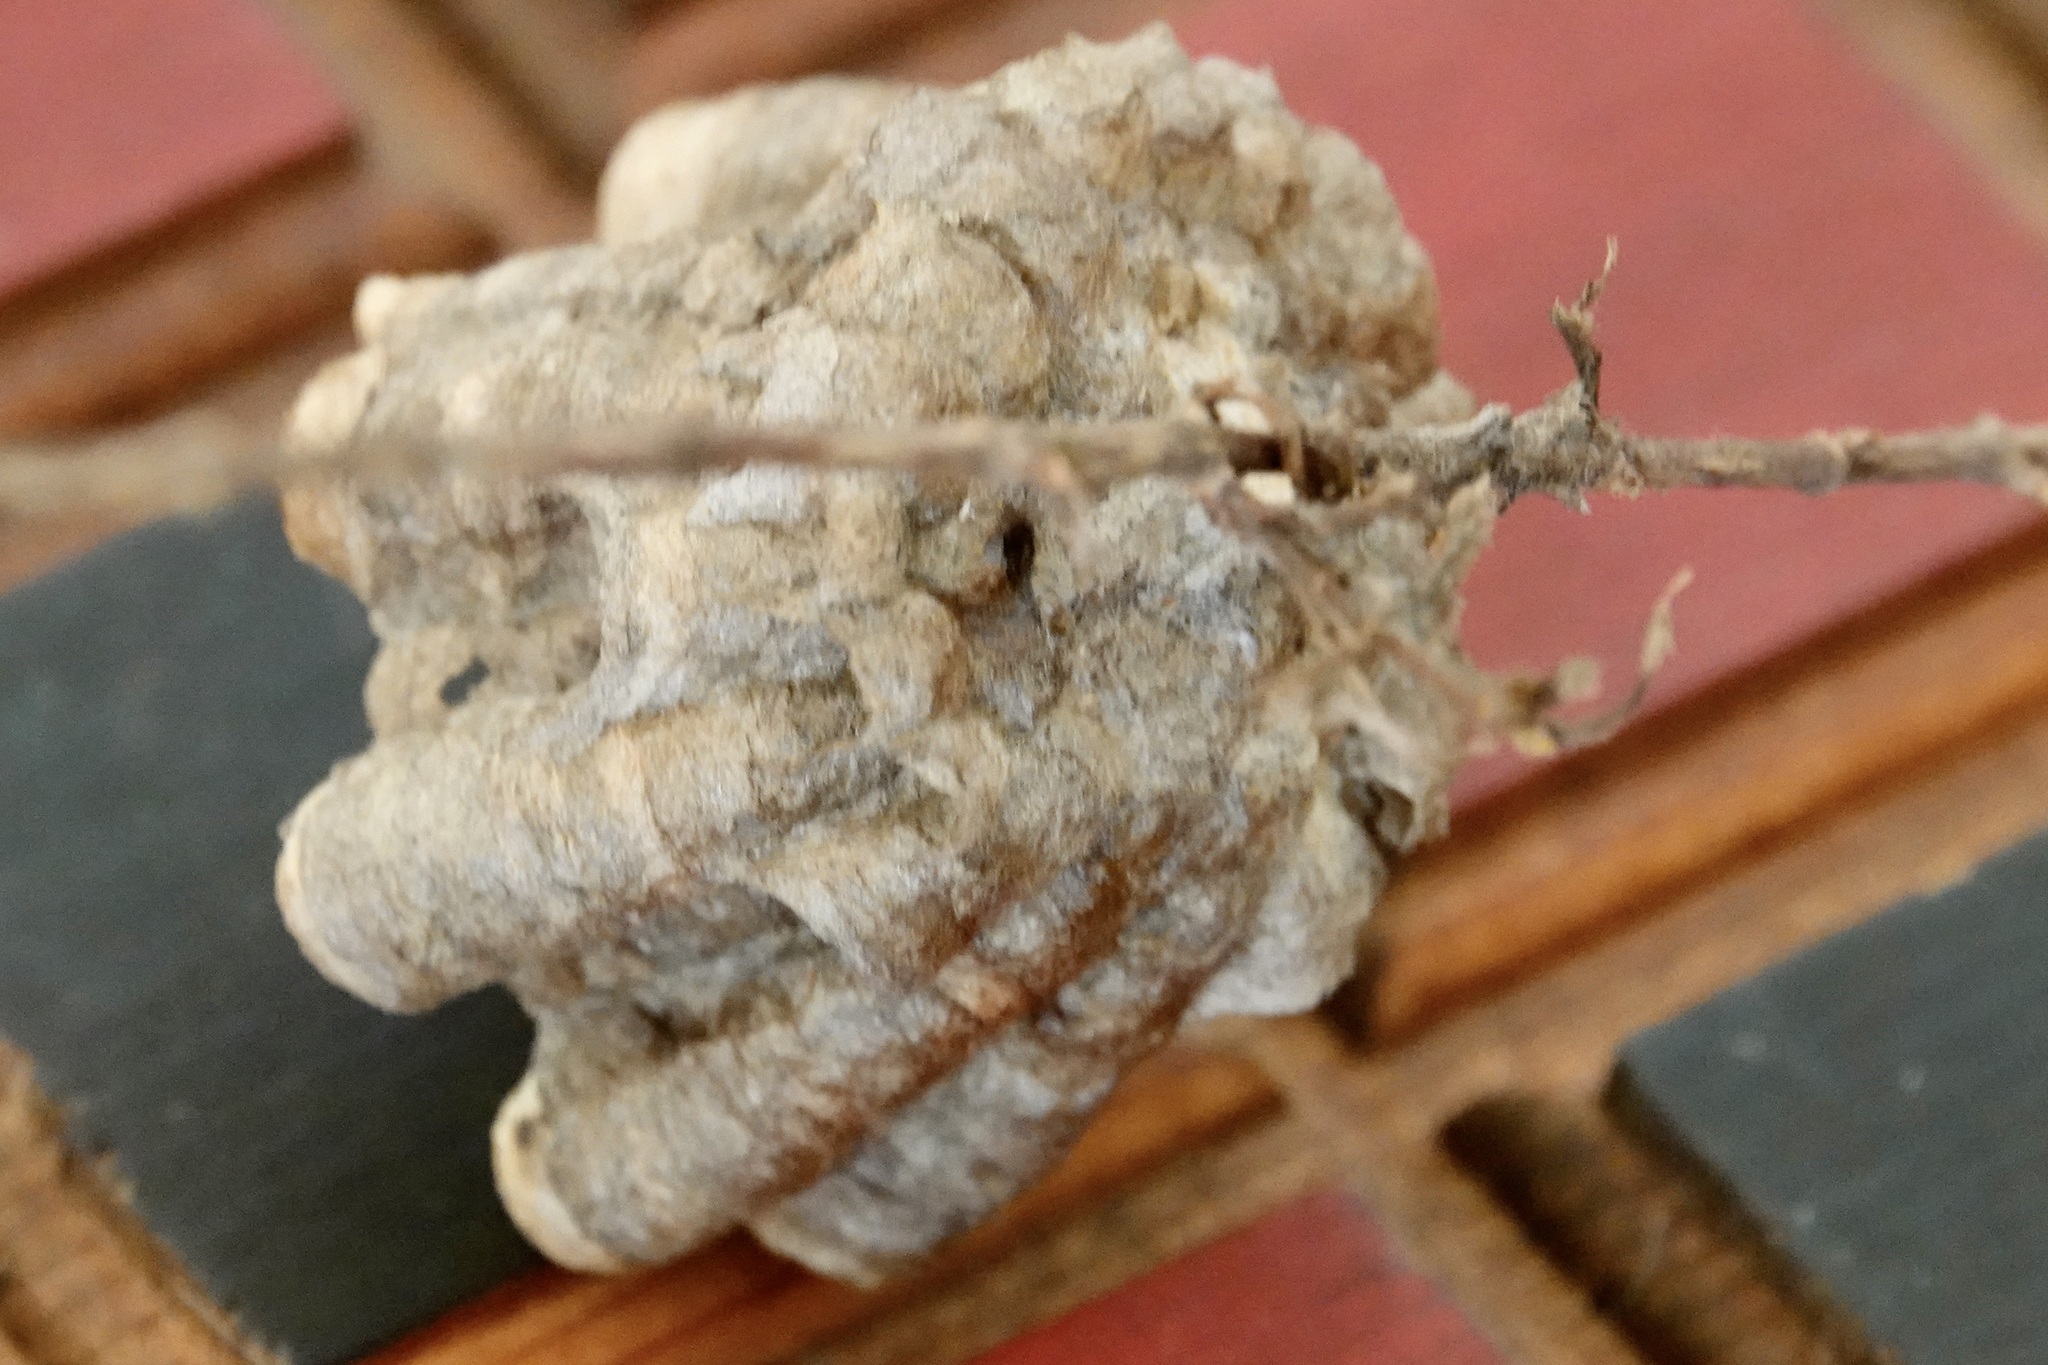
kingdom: Animalia
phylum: Arthropoda
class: Insecta
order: Hymenoptera
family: Eumenidae
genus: Polistes
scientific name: Polistes
